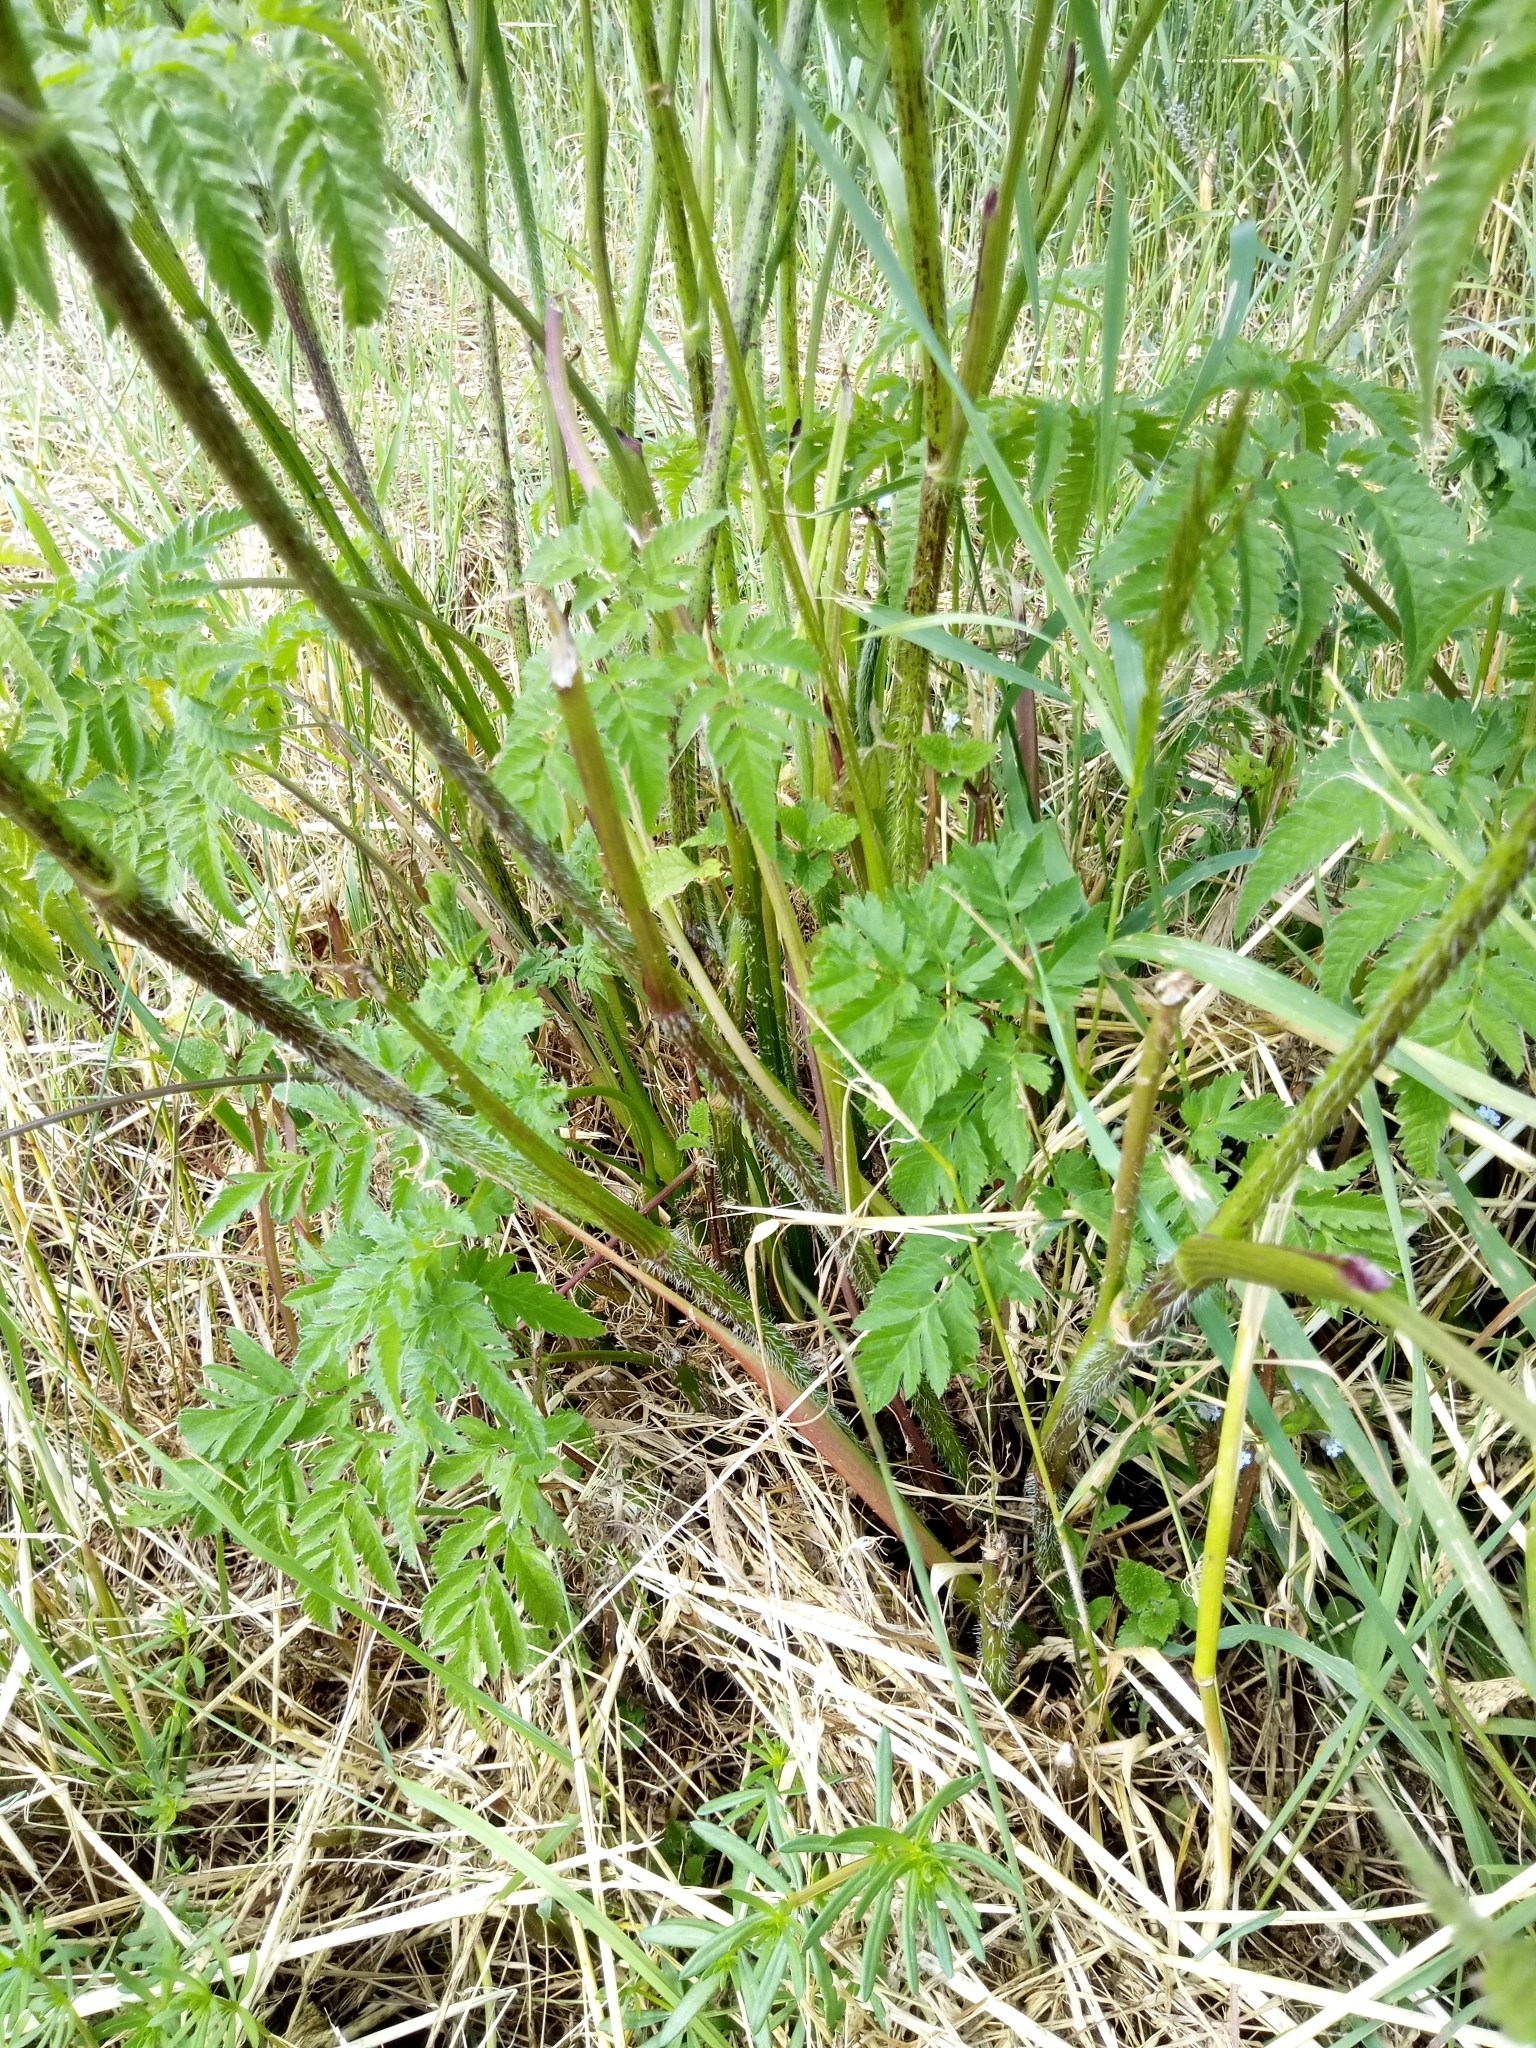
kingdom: Plantae
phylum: Tracheophyta
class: Magnoliopsida
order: Apiales
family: Apiaceae
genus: Chaerophyllum
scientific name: Chaerophyllum aureum
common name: Golden chervil
